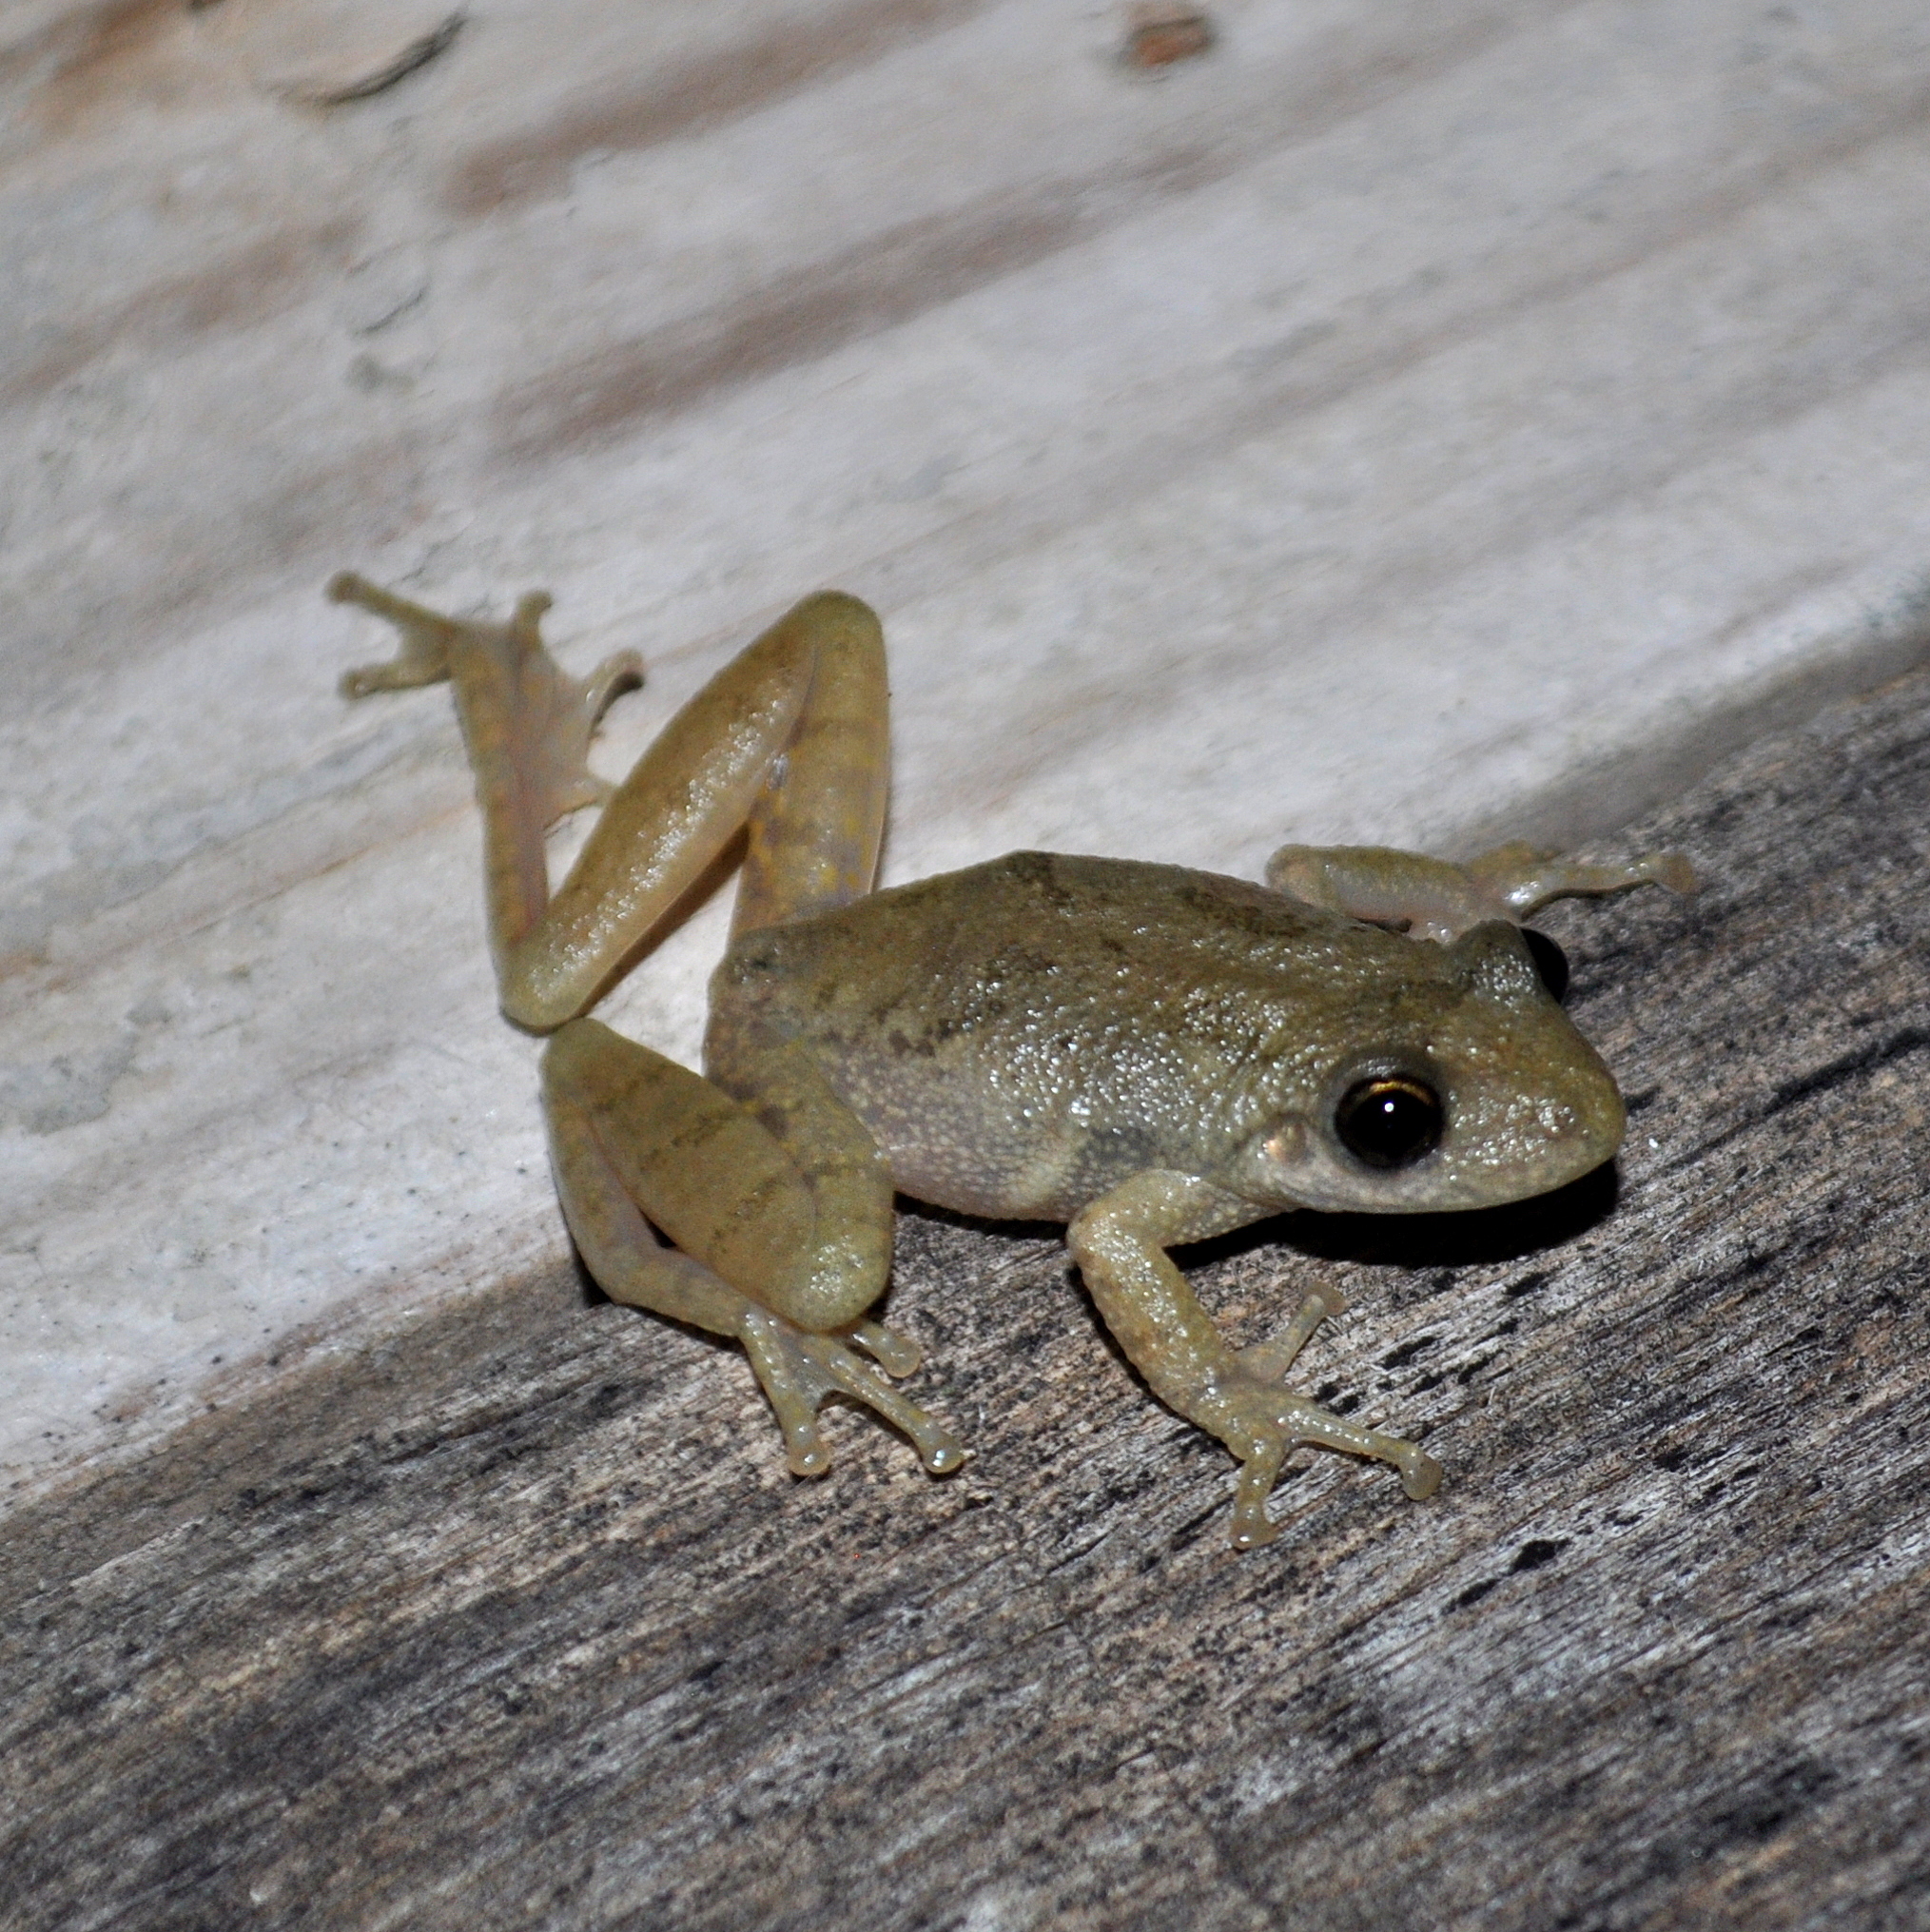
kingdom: Animalia
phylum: Chordata
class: Amphibia
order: Anura
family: Hylidae
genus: Scinax
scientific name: Scinax granulatus
